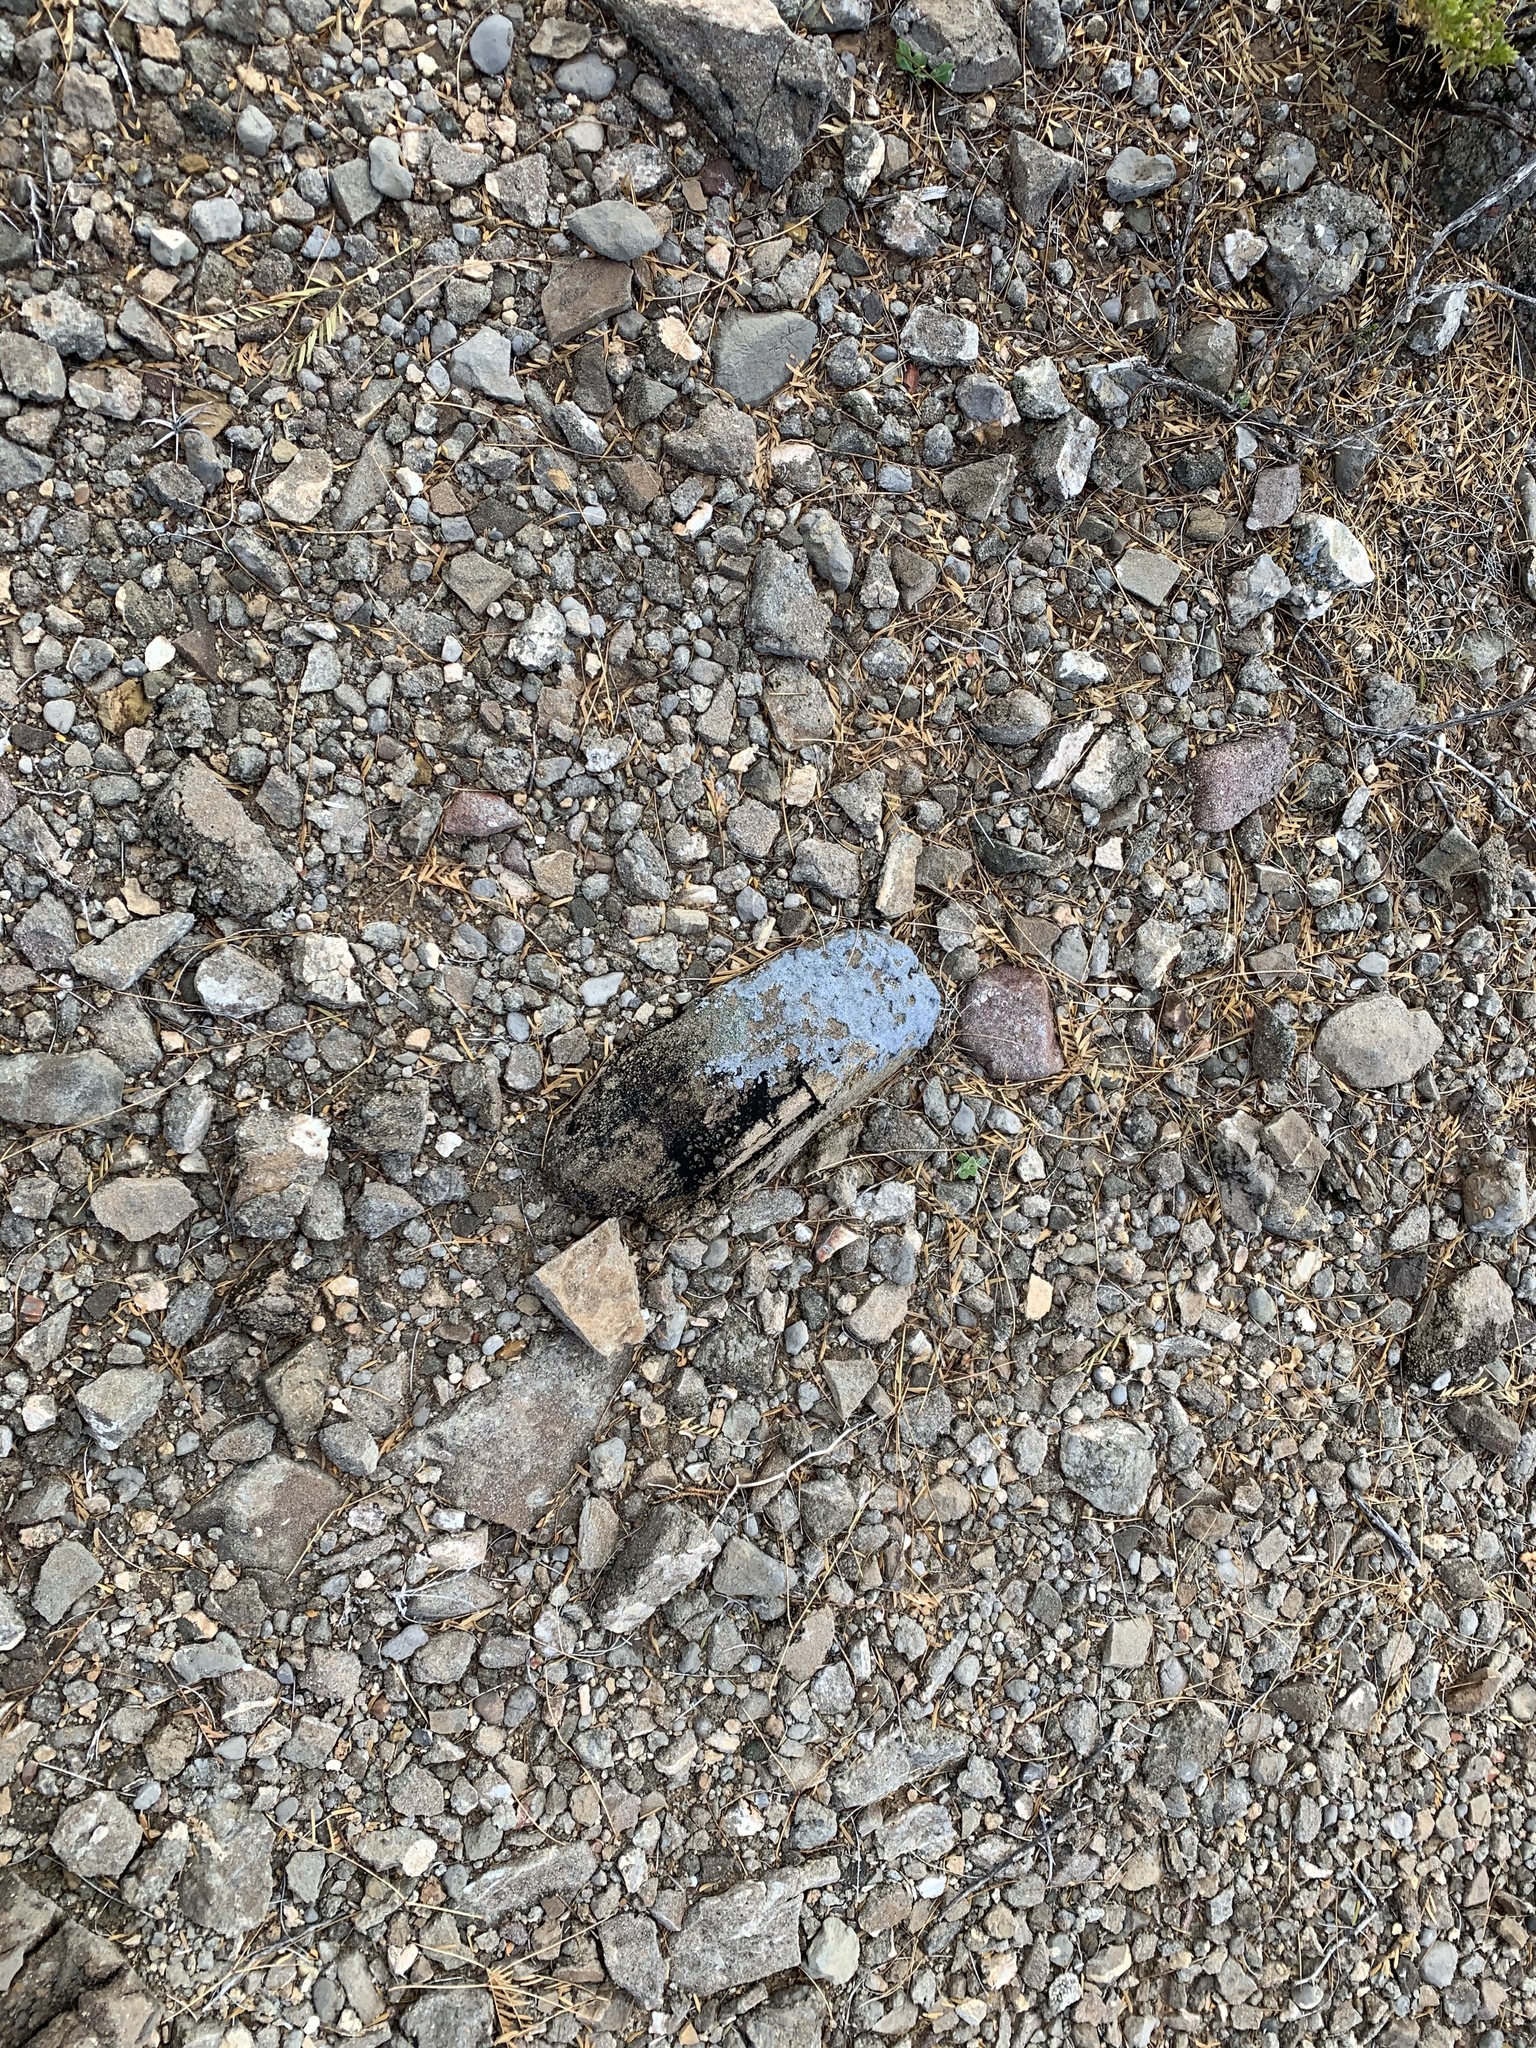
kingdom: Fungi
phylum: Ascomycota
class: Lecanoromycetes
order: Pertusariales
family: Megasporaceae
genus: Aspicilia
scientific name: Aspicilia cinerea
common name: Cinder lichen
